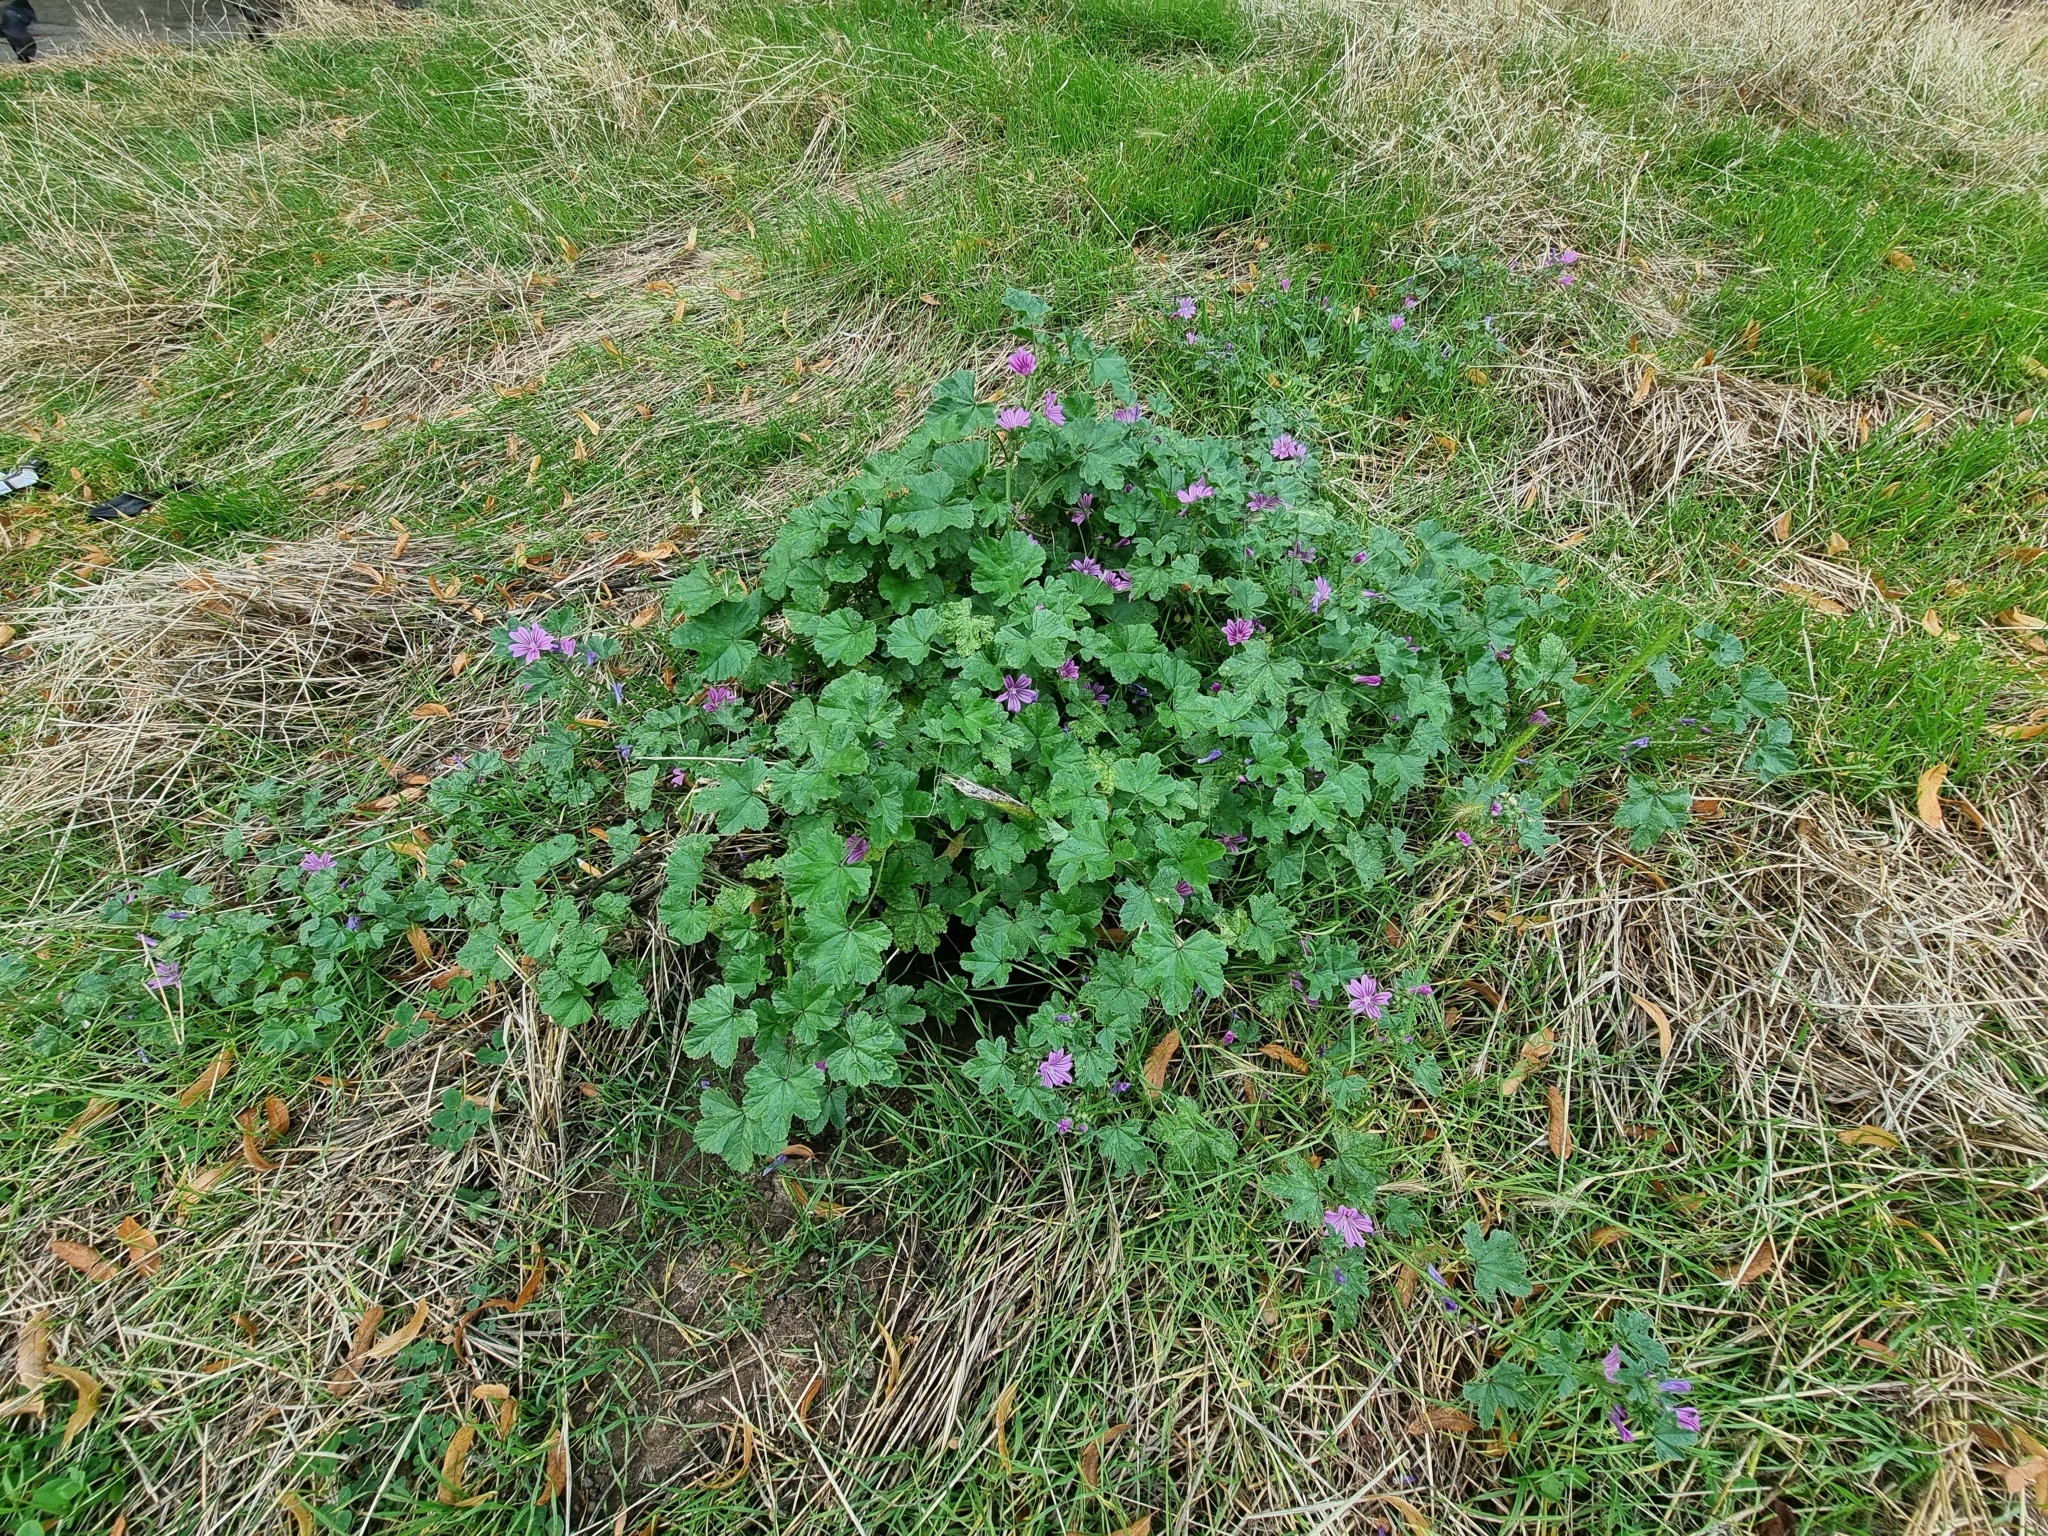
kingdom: Plantae
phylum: Tracheophyta
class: Magnoliopsida
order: Malvales
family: Malvaceae
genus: Malva
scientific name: Malva sylvestris
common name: Common mallow
